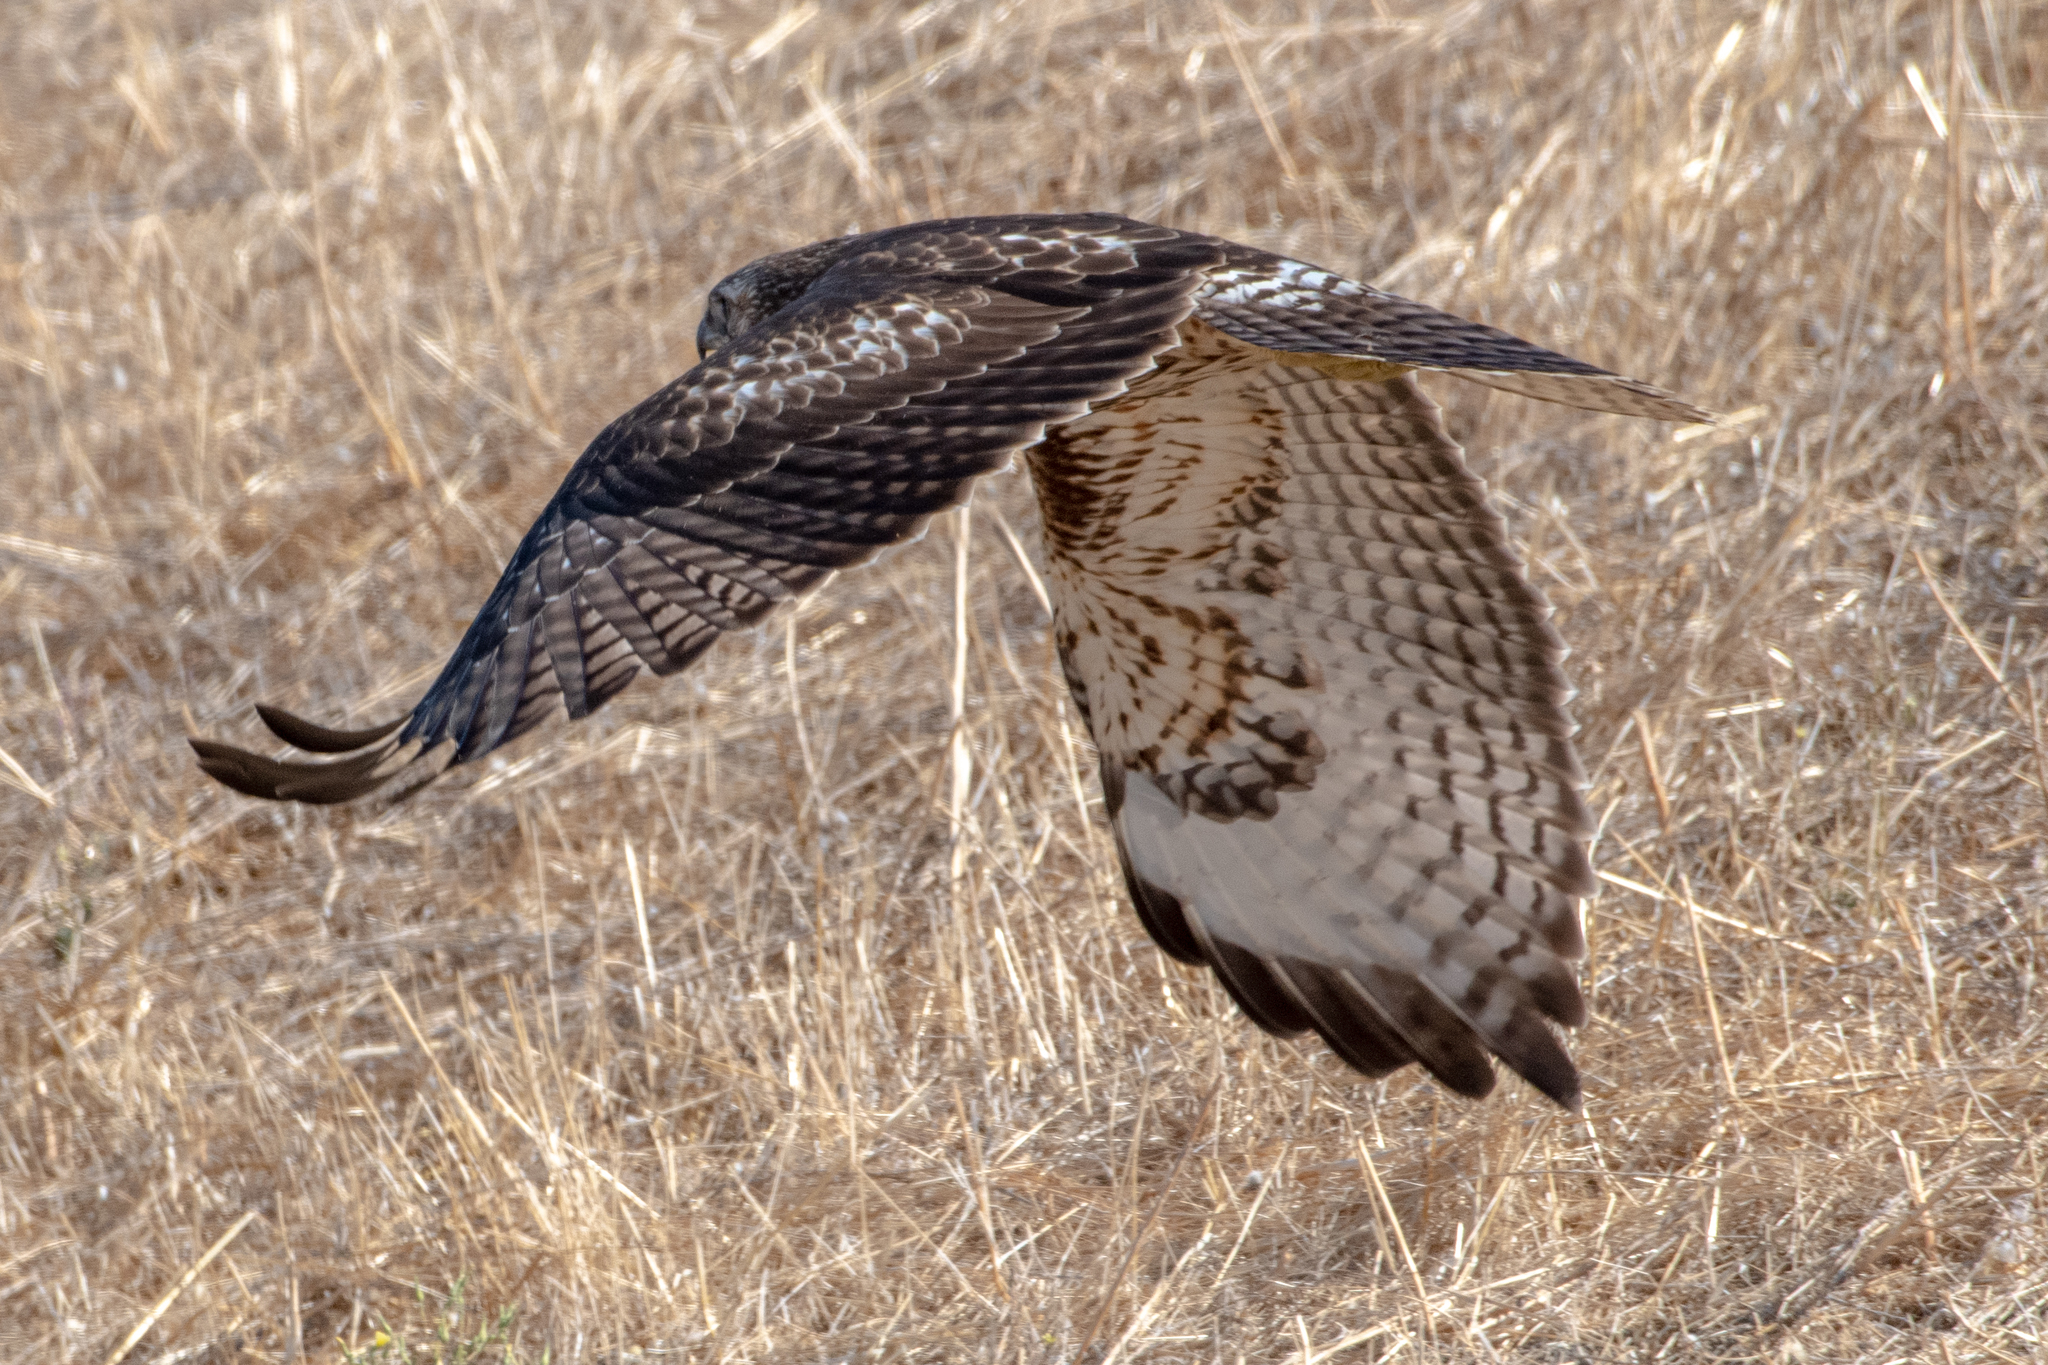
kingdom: Animalia
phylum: Chordata
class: Aves
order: Accipitriformes
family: Accipitridae
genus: Buteo
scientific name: Buteo jamaicensis
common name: Red-tailed hawk
